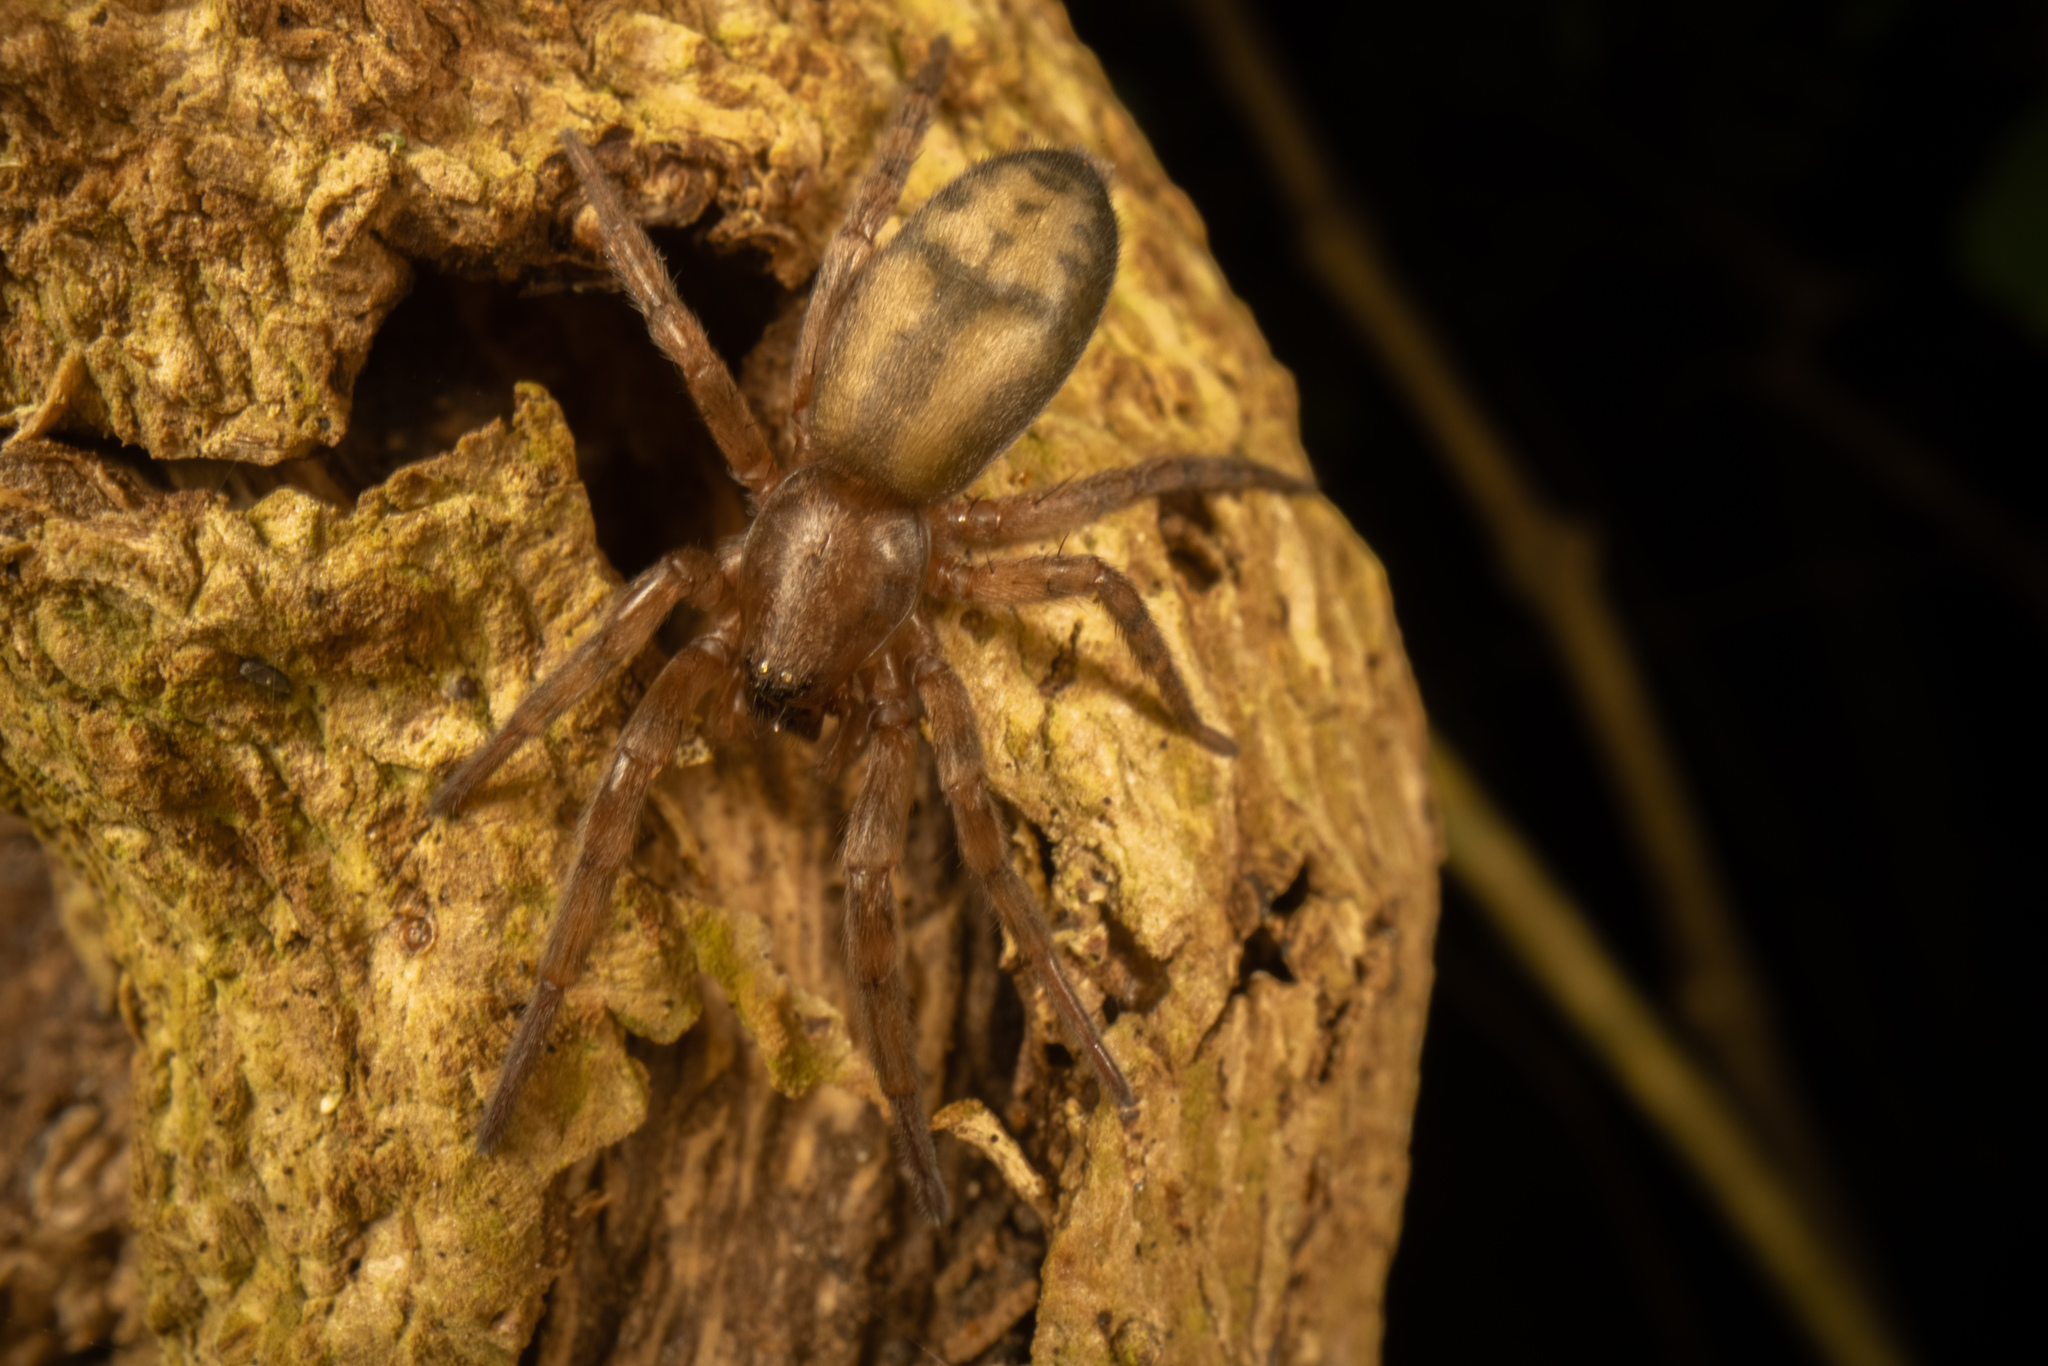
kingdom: Animalia
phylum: Arthropoda
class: Arachnida
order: Araneae
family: Gnaphosidae
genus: Intruda
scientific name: Intruda signata
